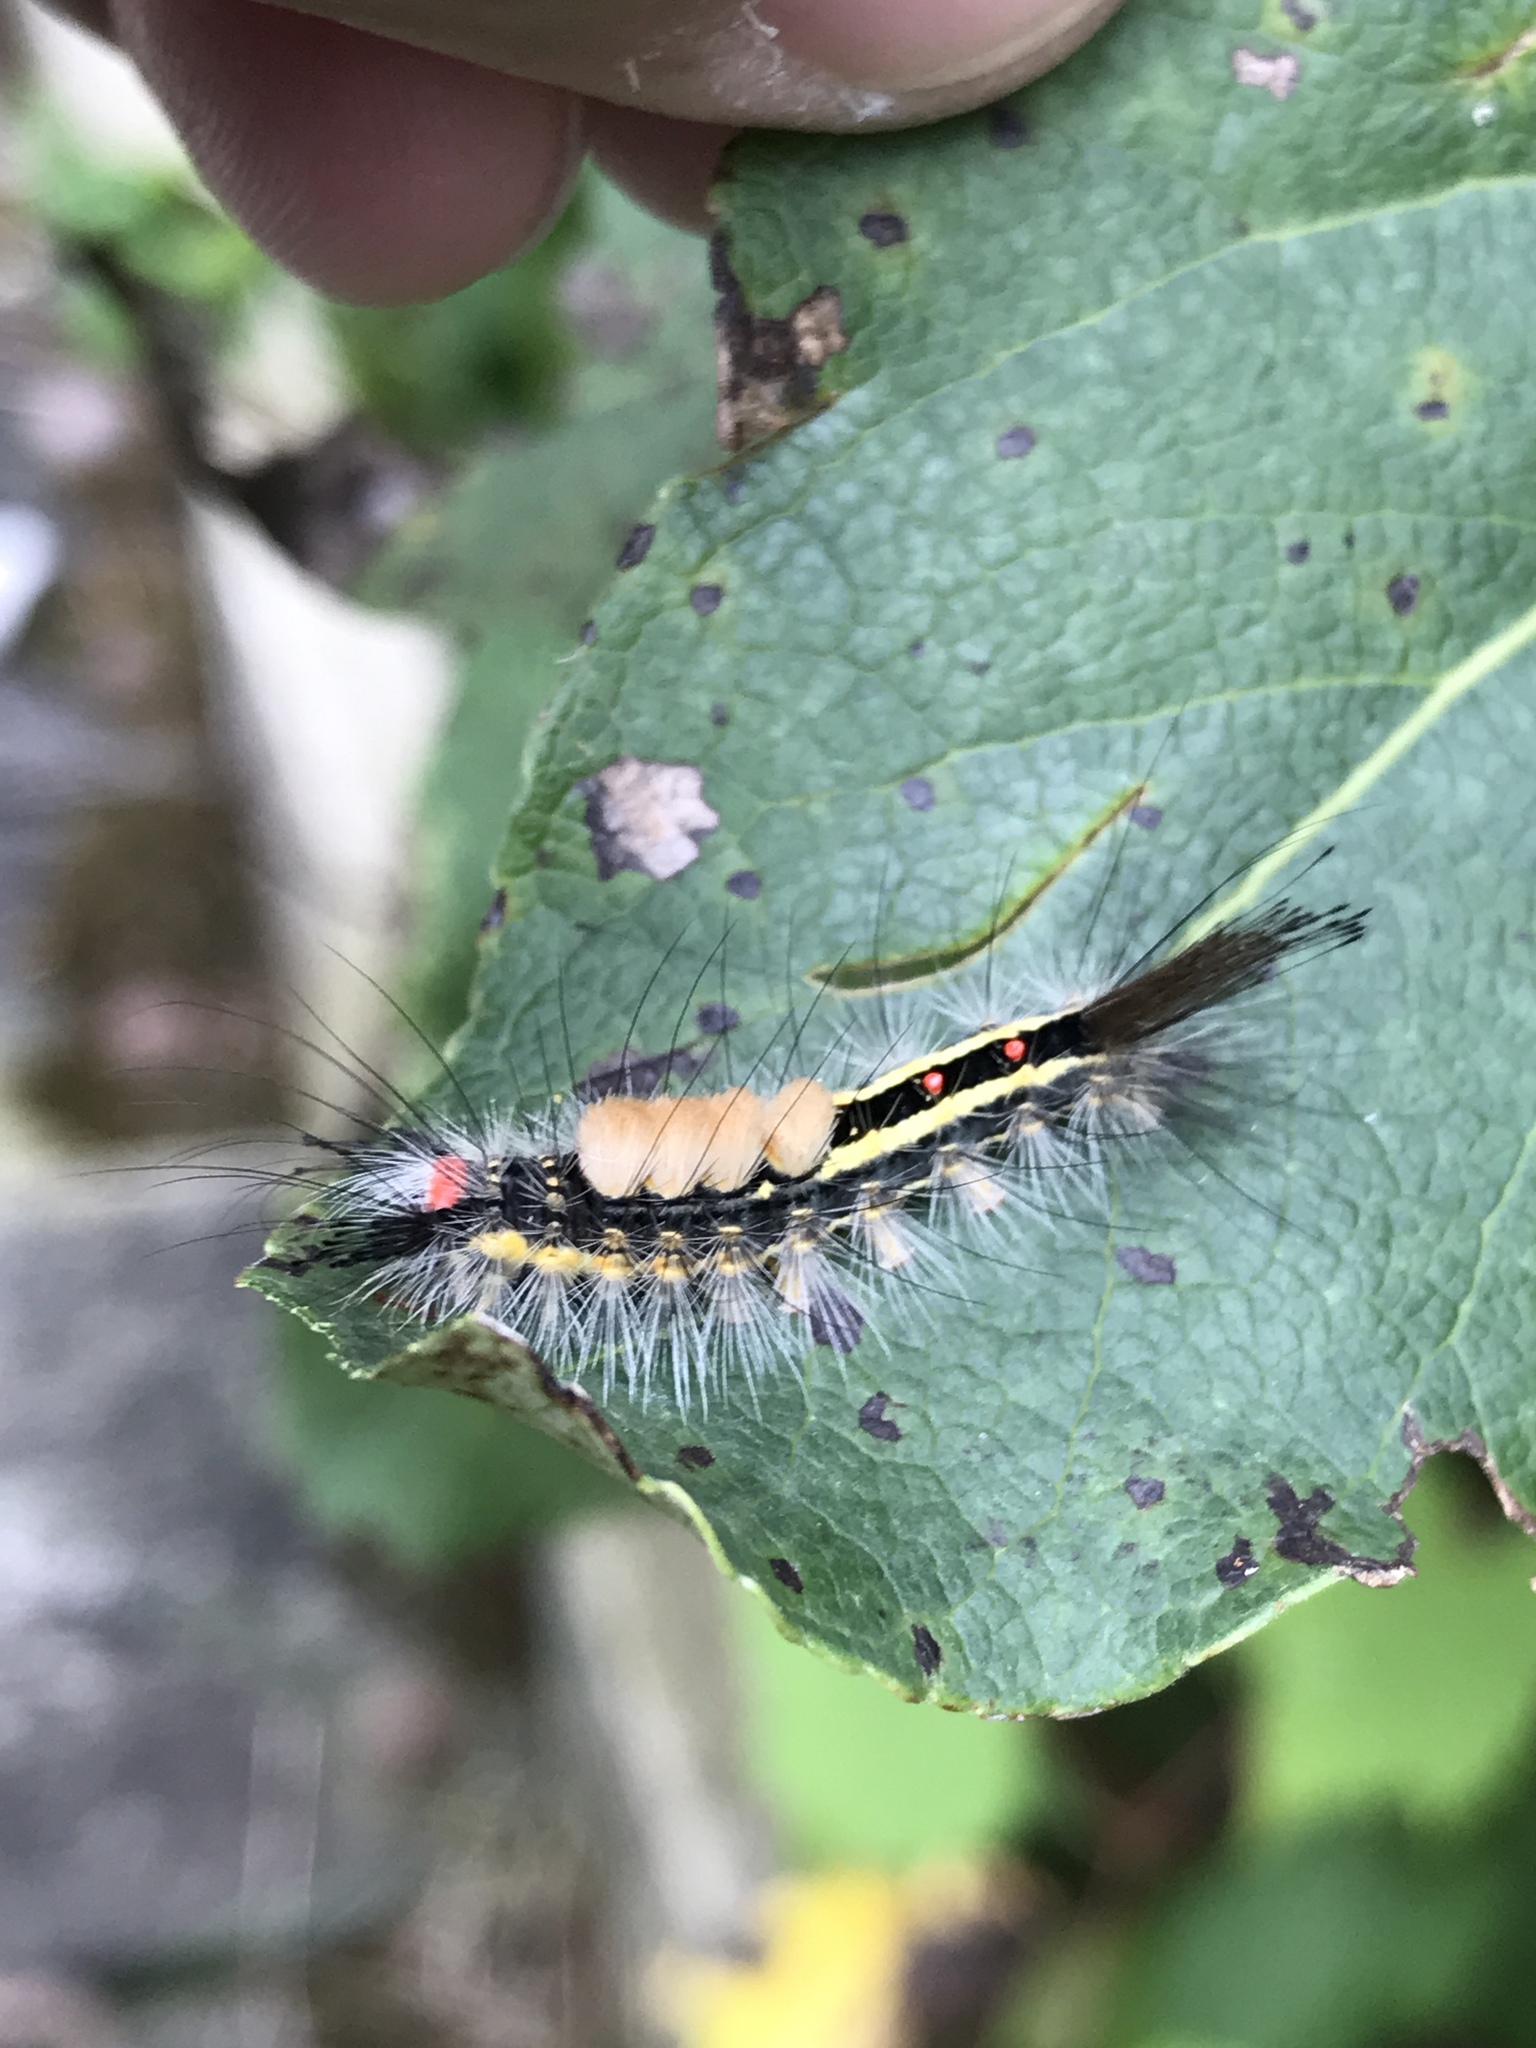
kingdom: Animalia
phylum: Arthropoda
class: Insecta
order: Lepidoptera
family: Erebidae
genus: Orgyia
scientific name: Orgyia leucostigma
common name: White-marked tussock moth
